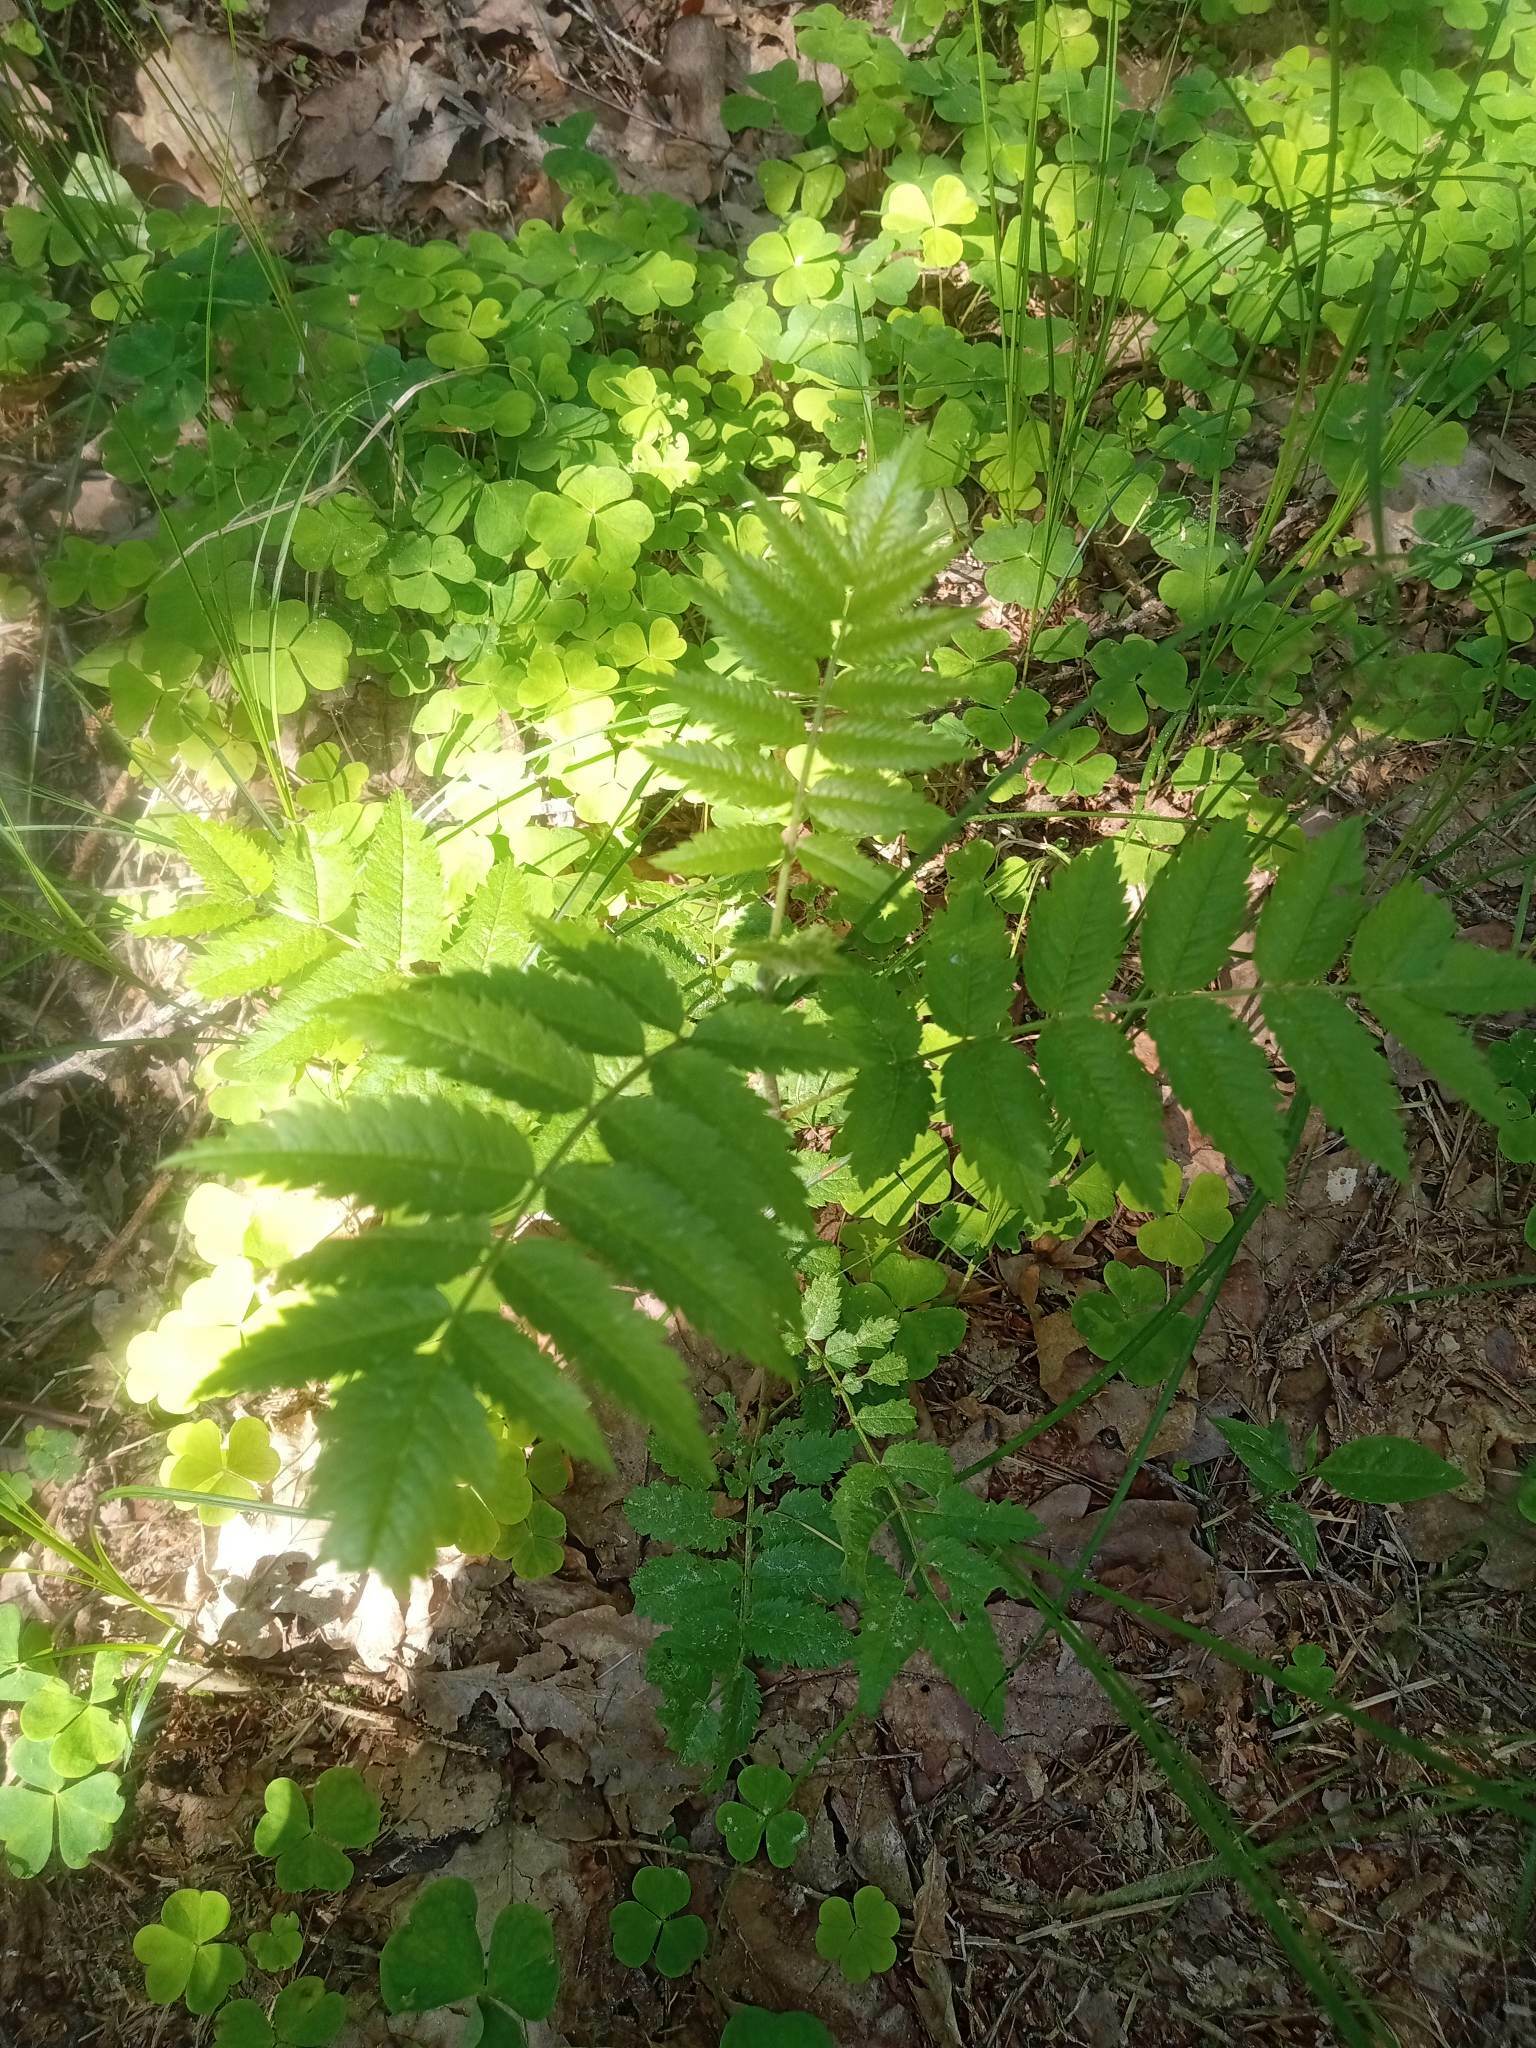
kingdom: Plantae
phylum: Tracheophyta
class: Magnoliopsida
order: Rosales
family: Rosaceae
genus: Sorbus
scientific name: Sorbus aucuparia
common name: Rowan
